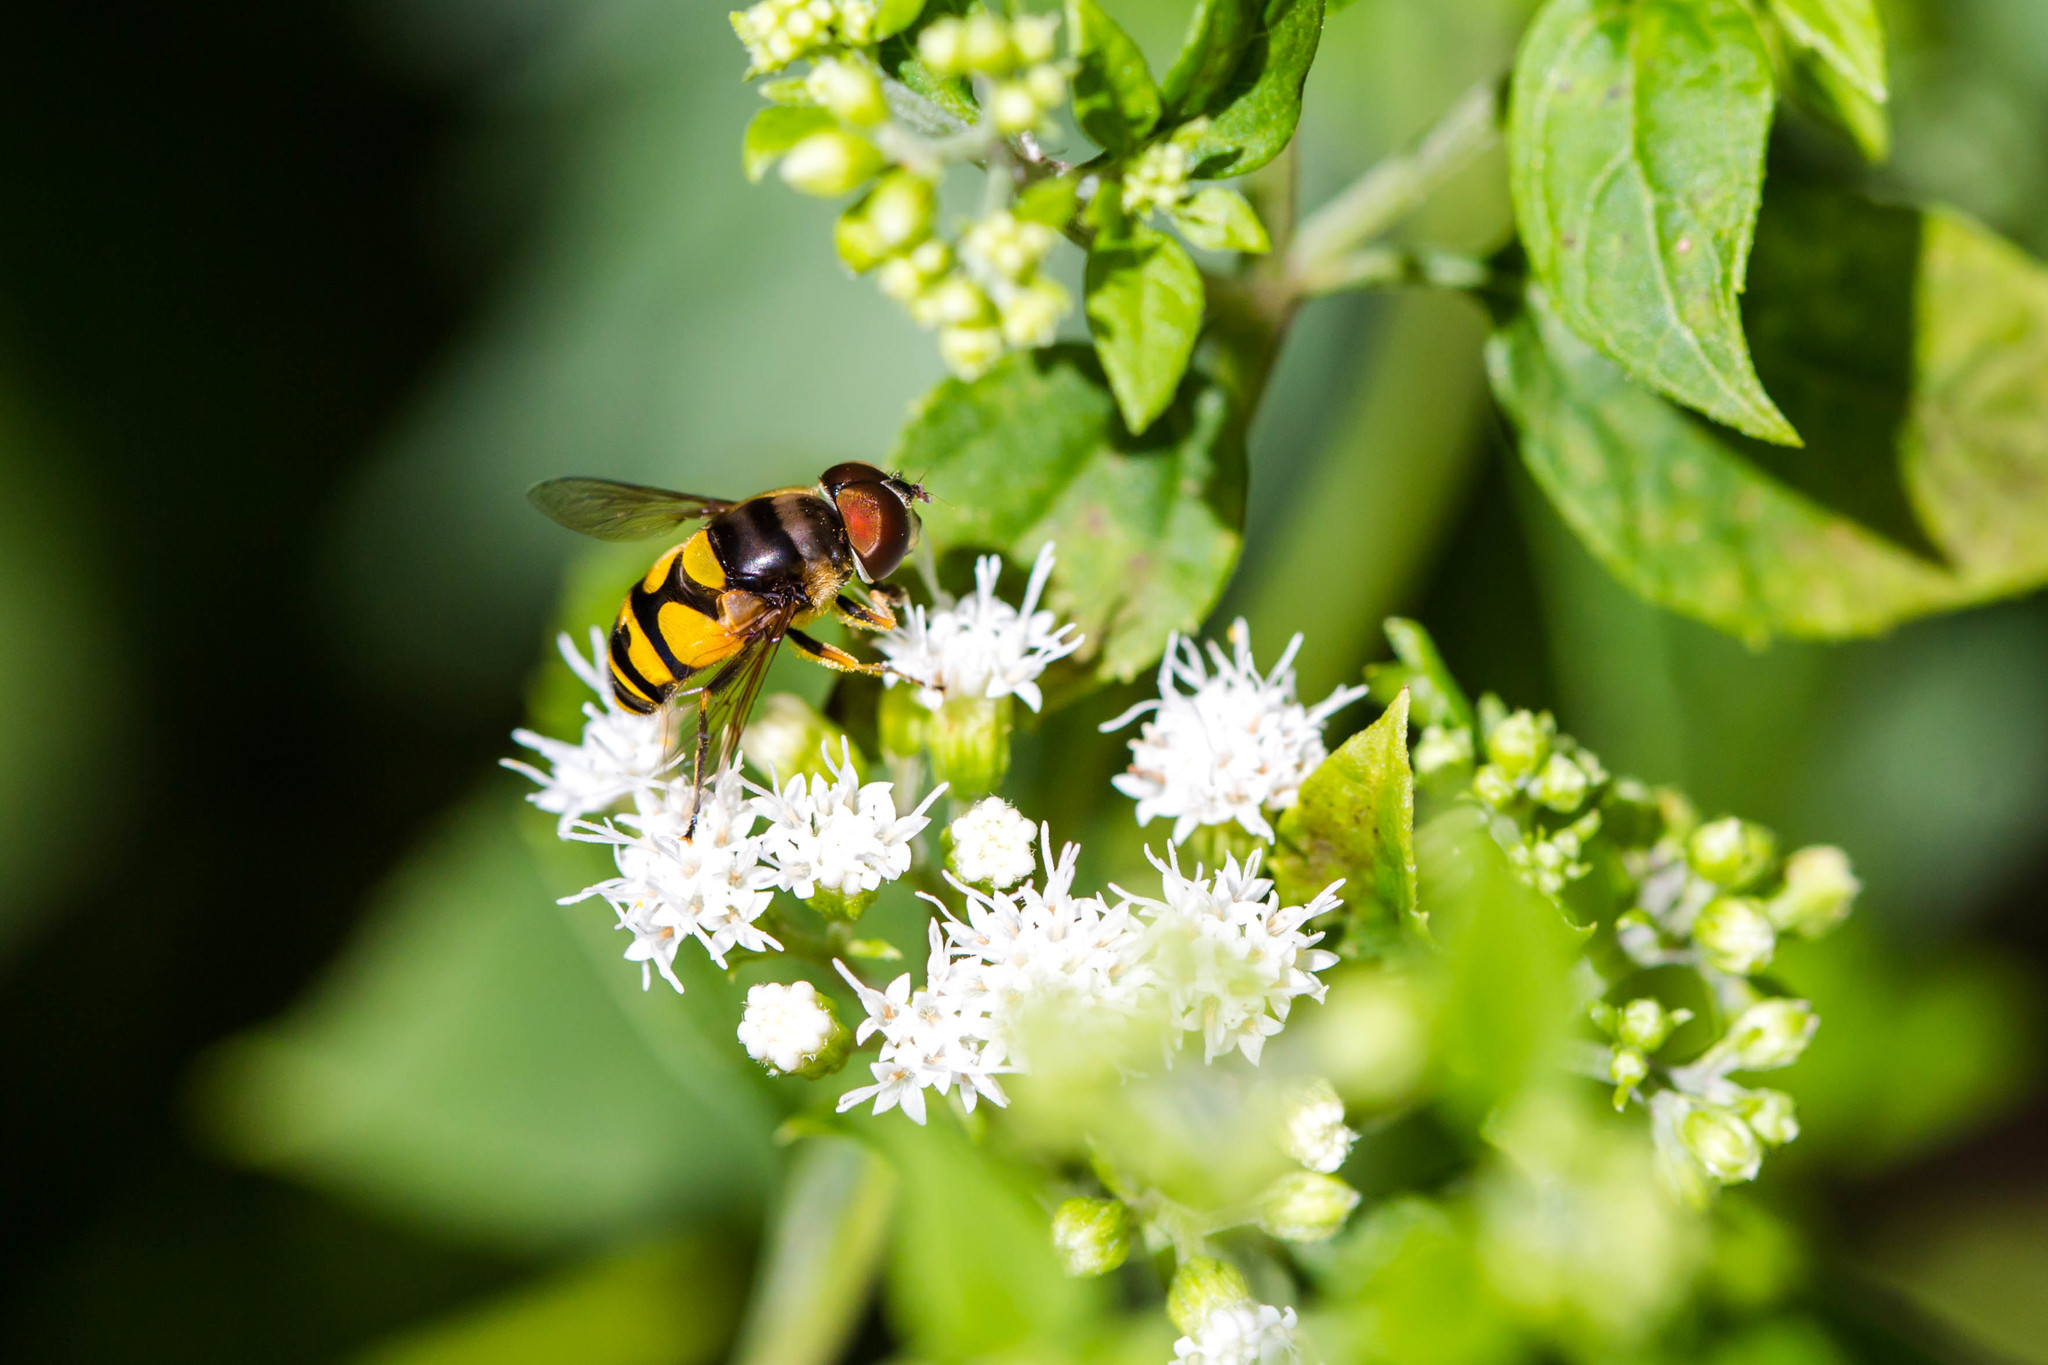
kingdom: Animalia
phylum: Arthropoda
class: Insecta
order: Diptera
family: Syrphidae
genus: Eristalis
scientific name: Eristalis transversa
